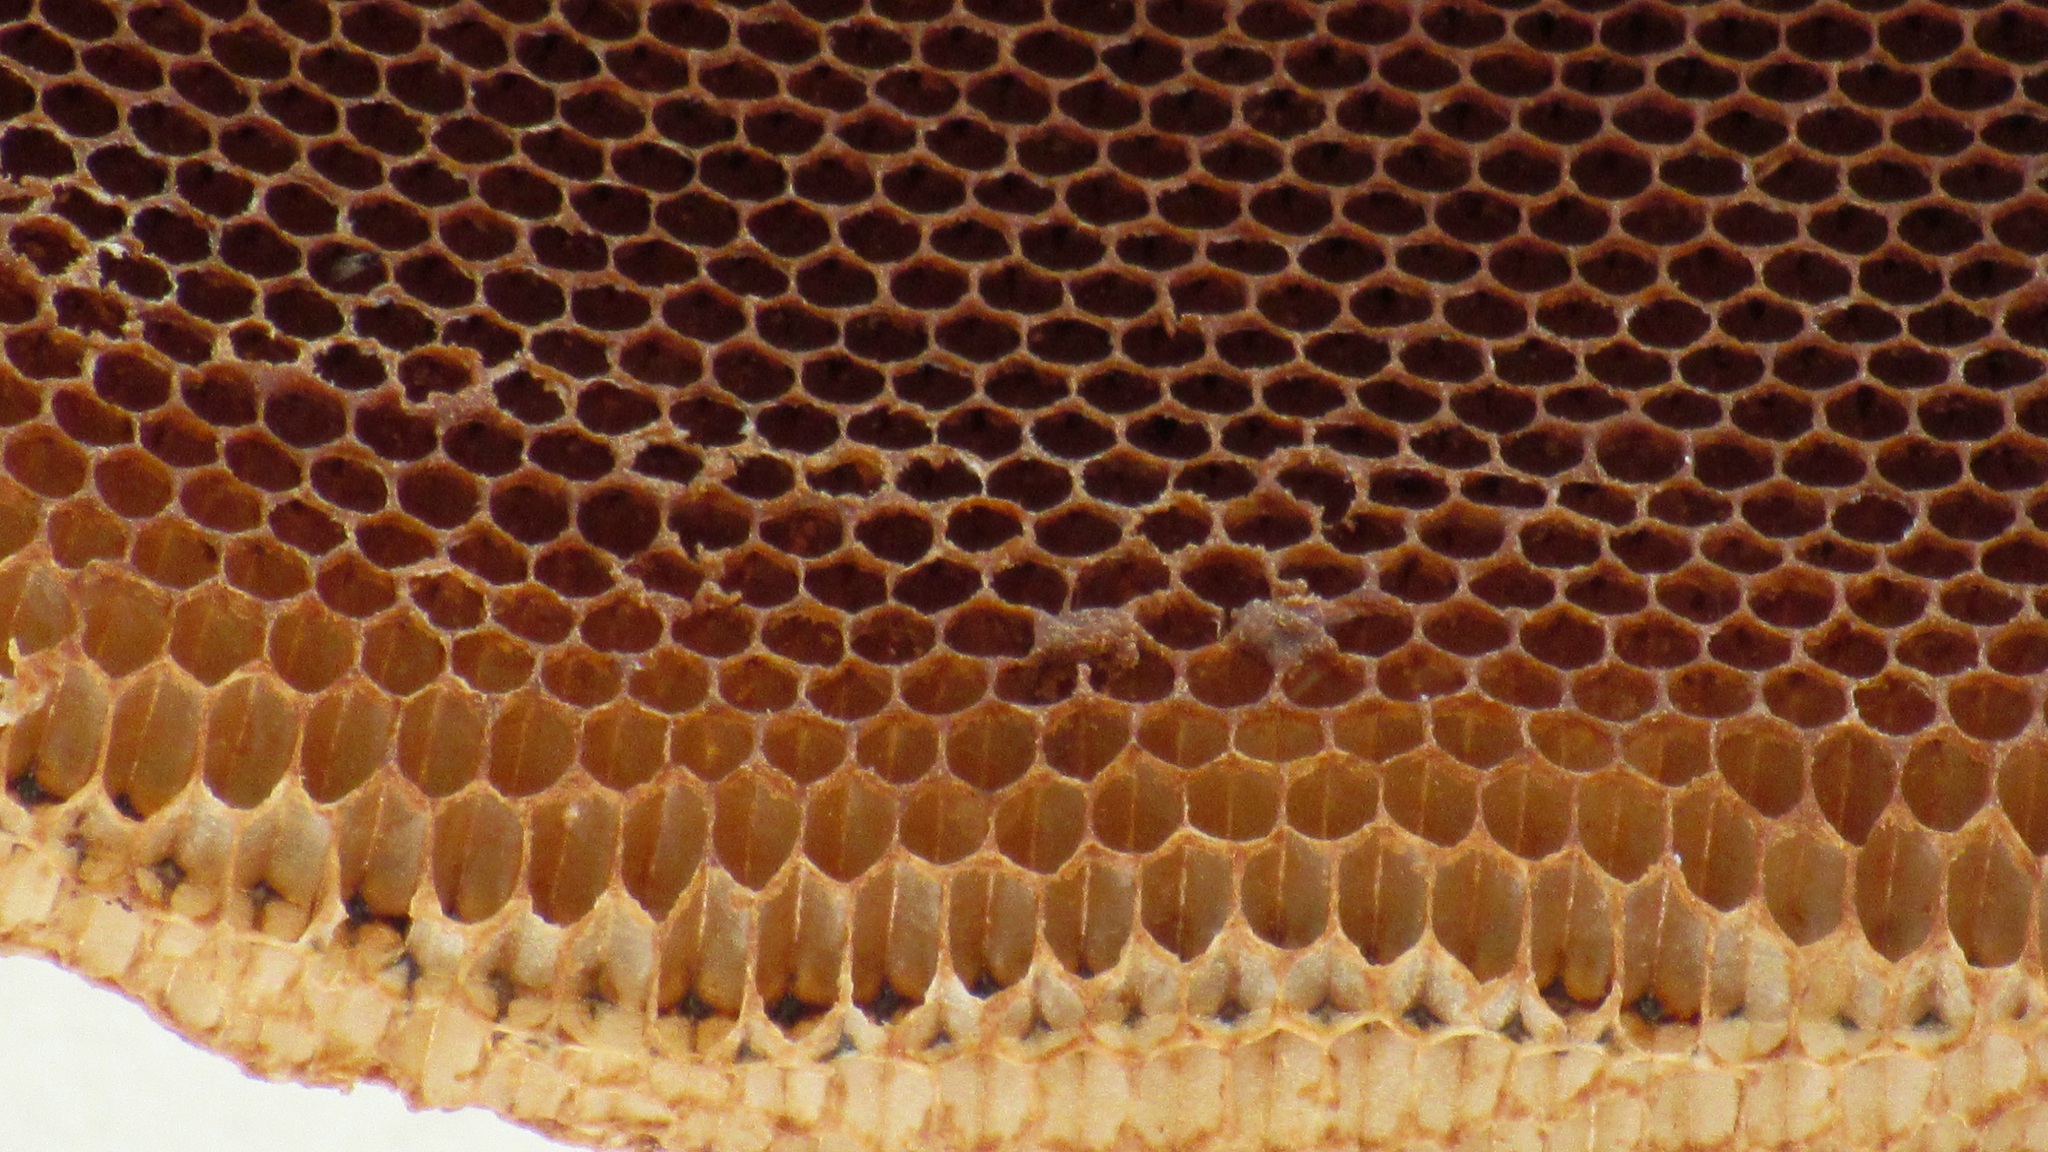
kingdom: Animalia
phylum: Arthropoda
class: Insecta
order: Hymenoptera
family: Apidae
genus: Apis
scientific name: Apis dorsata
